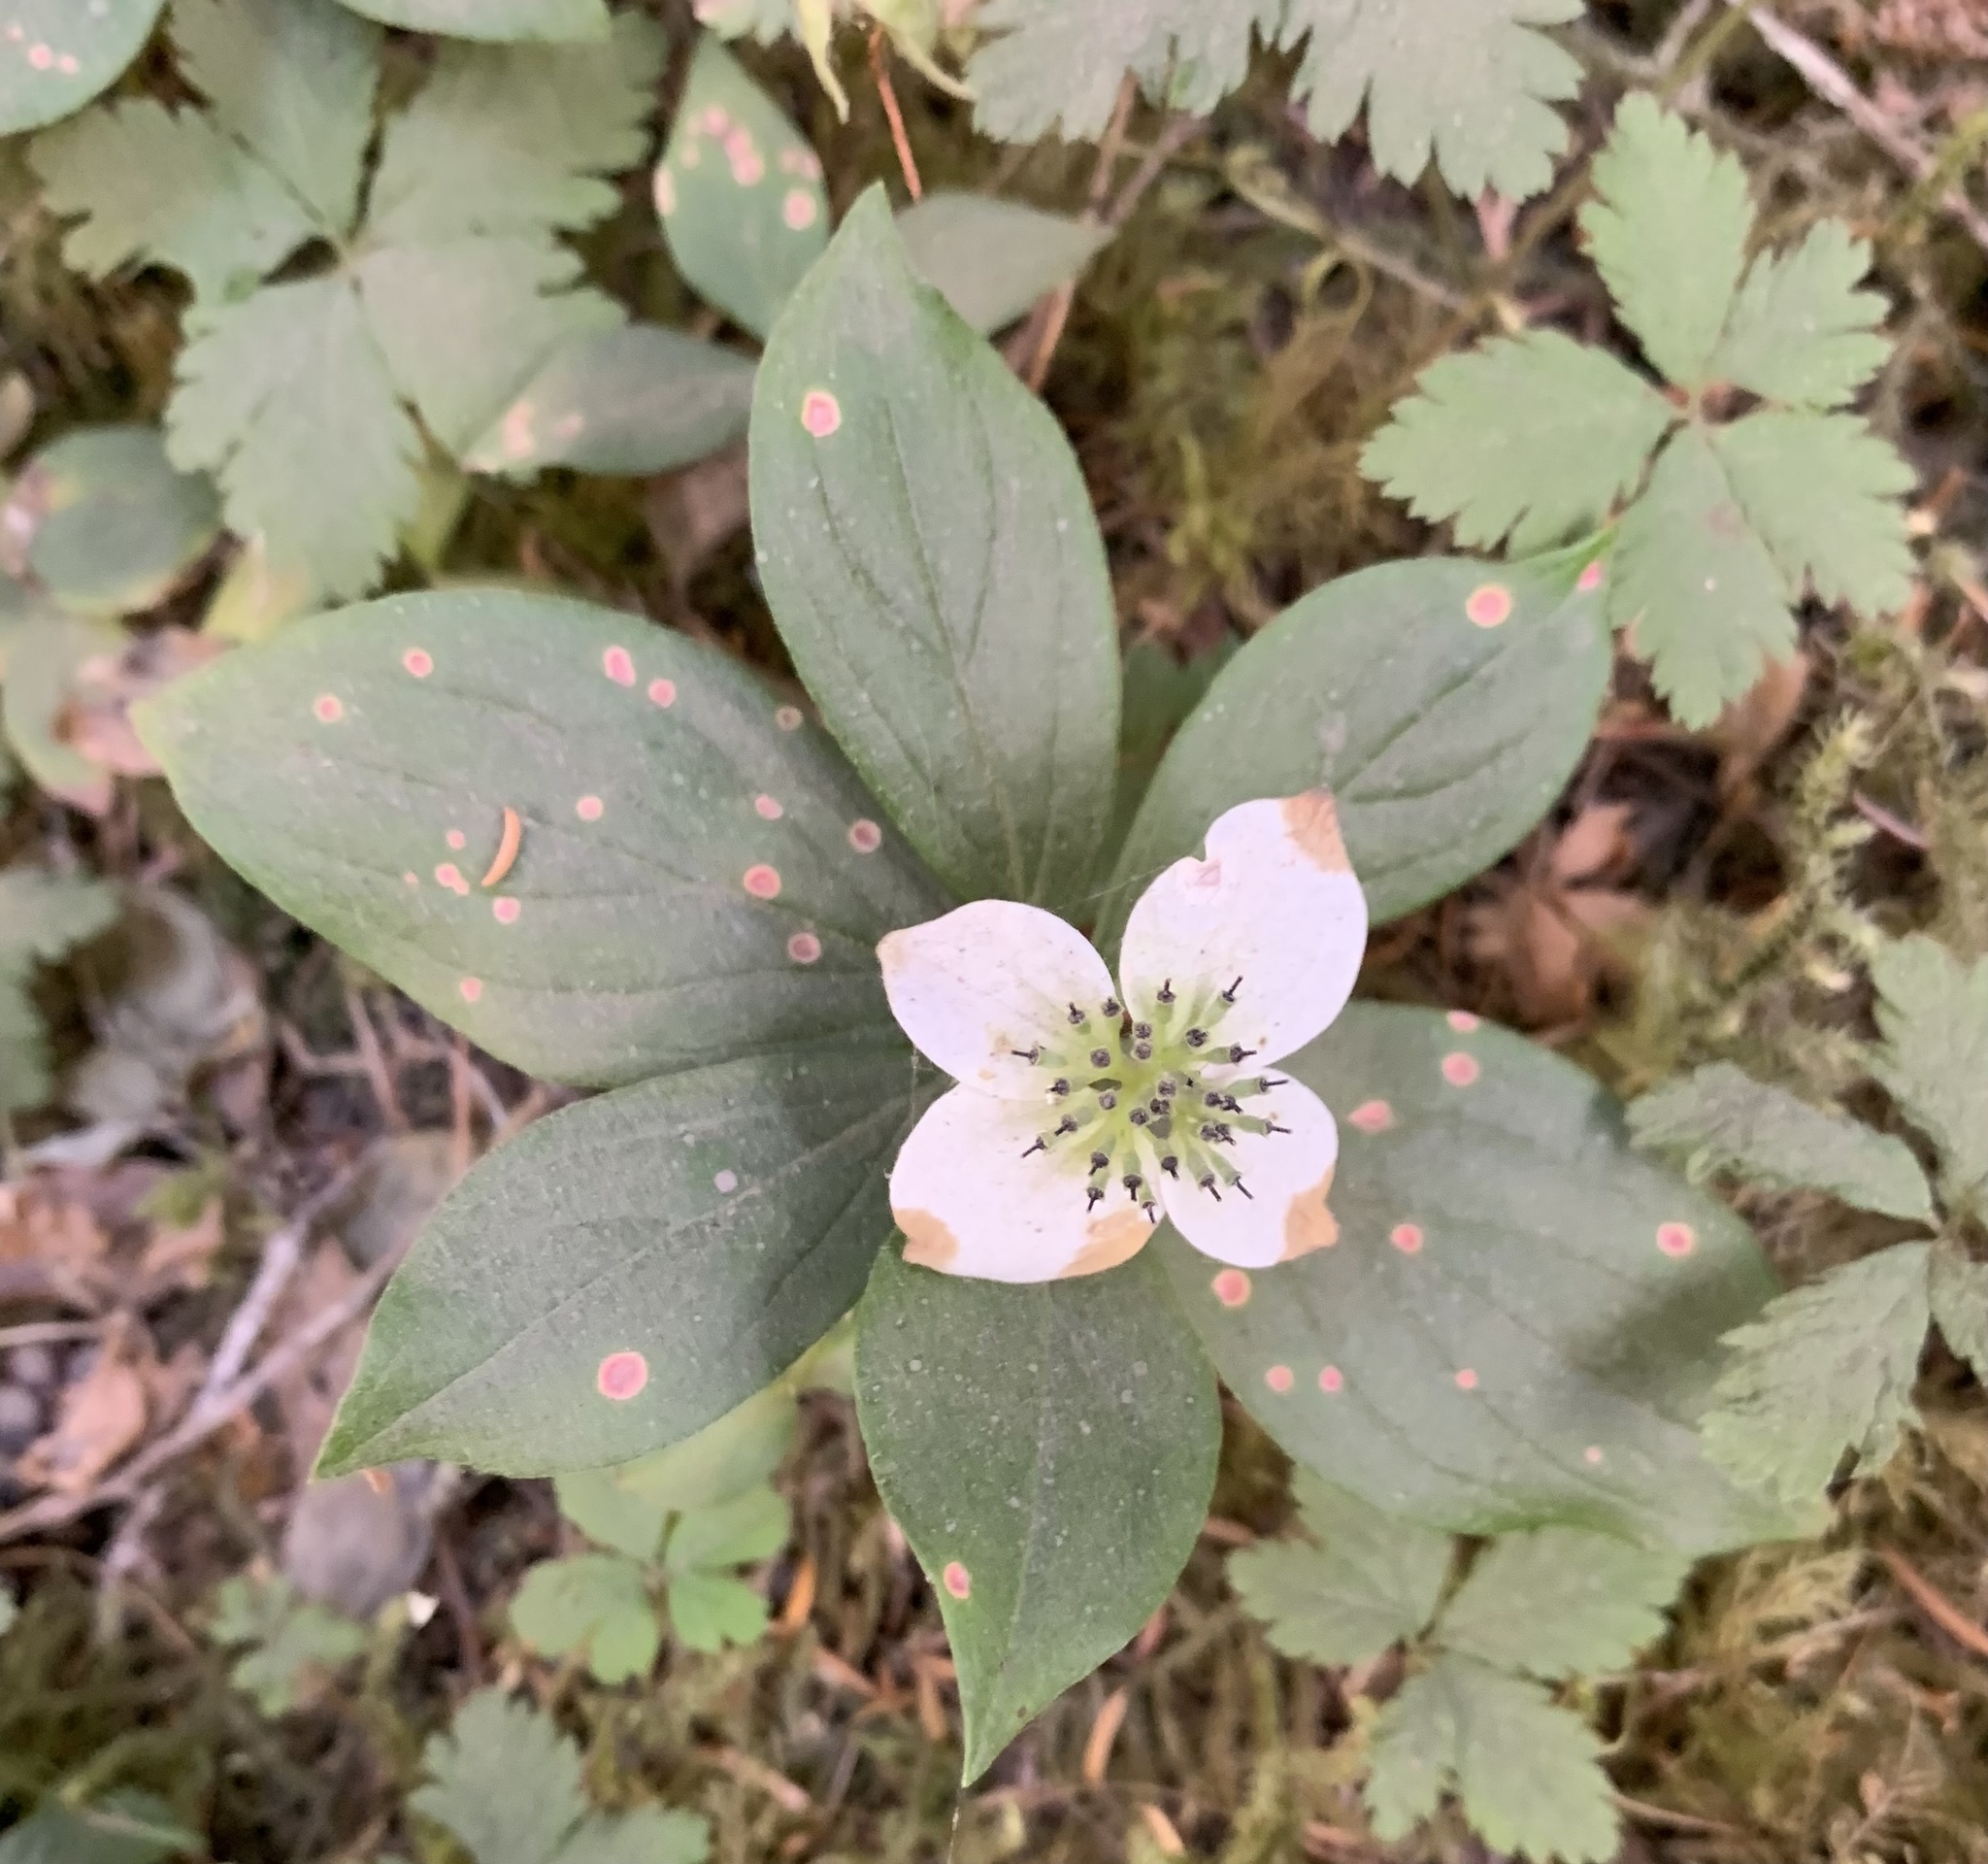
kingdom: Plantae
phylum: Tracheophyta
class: Magnoliopsida
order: Cornales
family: Cornaceae
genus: Cornus
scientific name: Cornus unalaschkensis
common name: Alaska bunchberry
